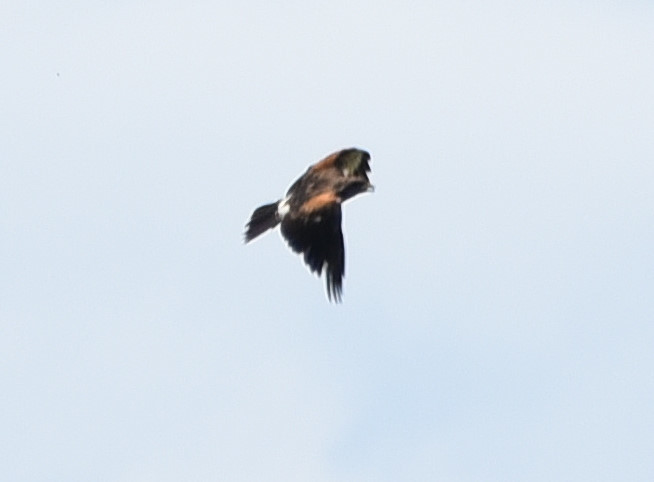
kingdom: Animalia
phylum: Chordata
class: Aves
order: Accipitriformes
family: Accipitridae
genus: Parabuteo
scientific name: Parabuteo unicinctus
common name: Harris's hawk
